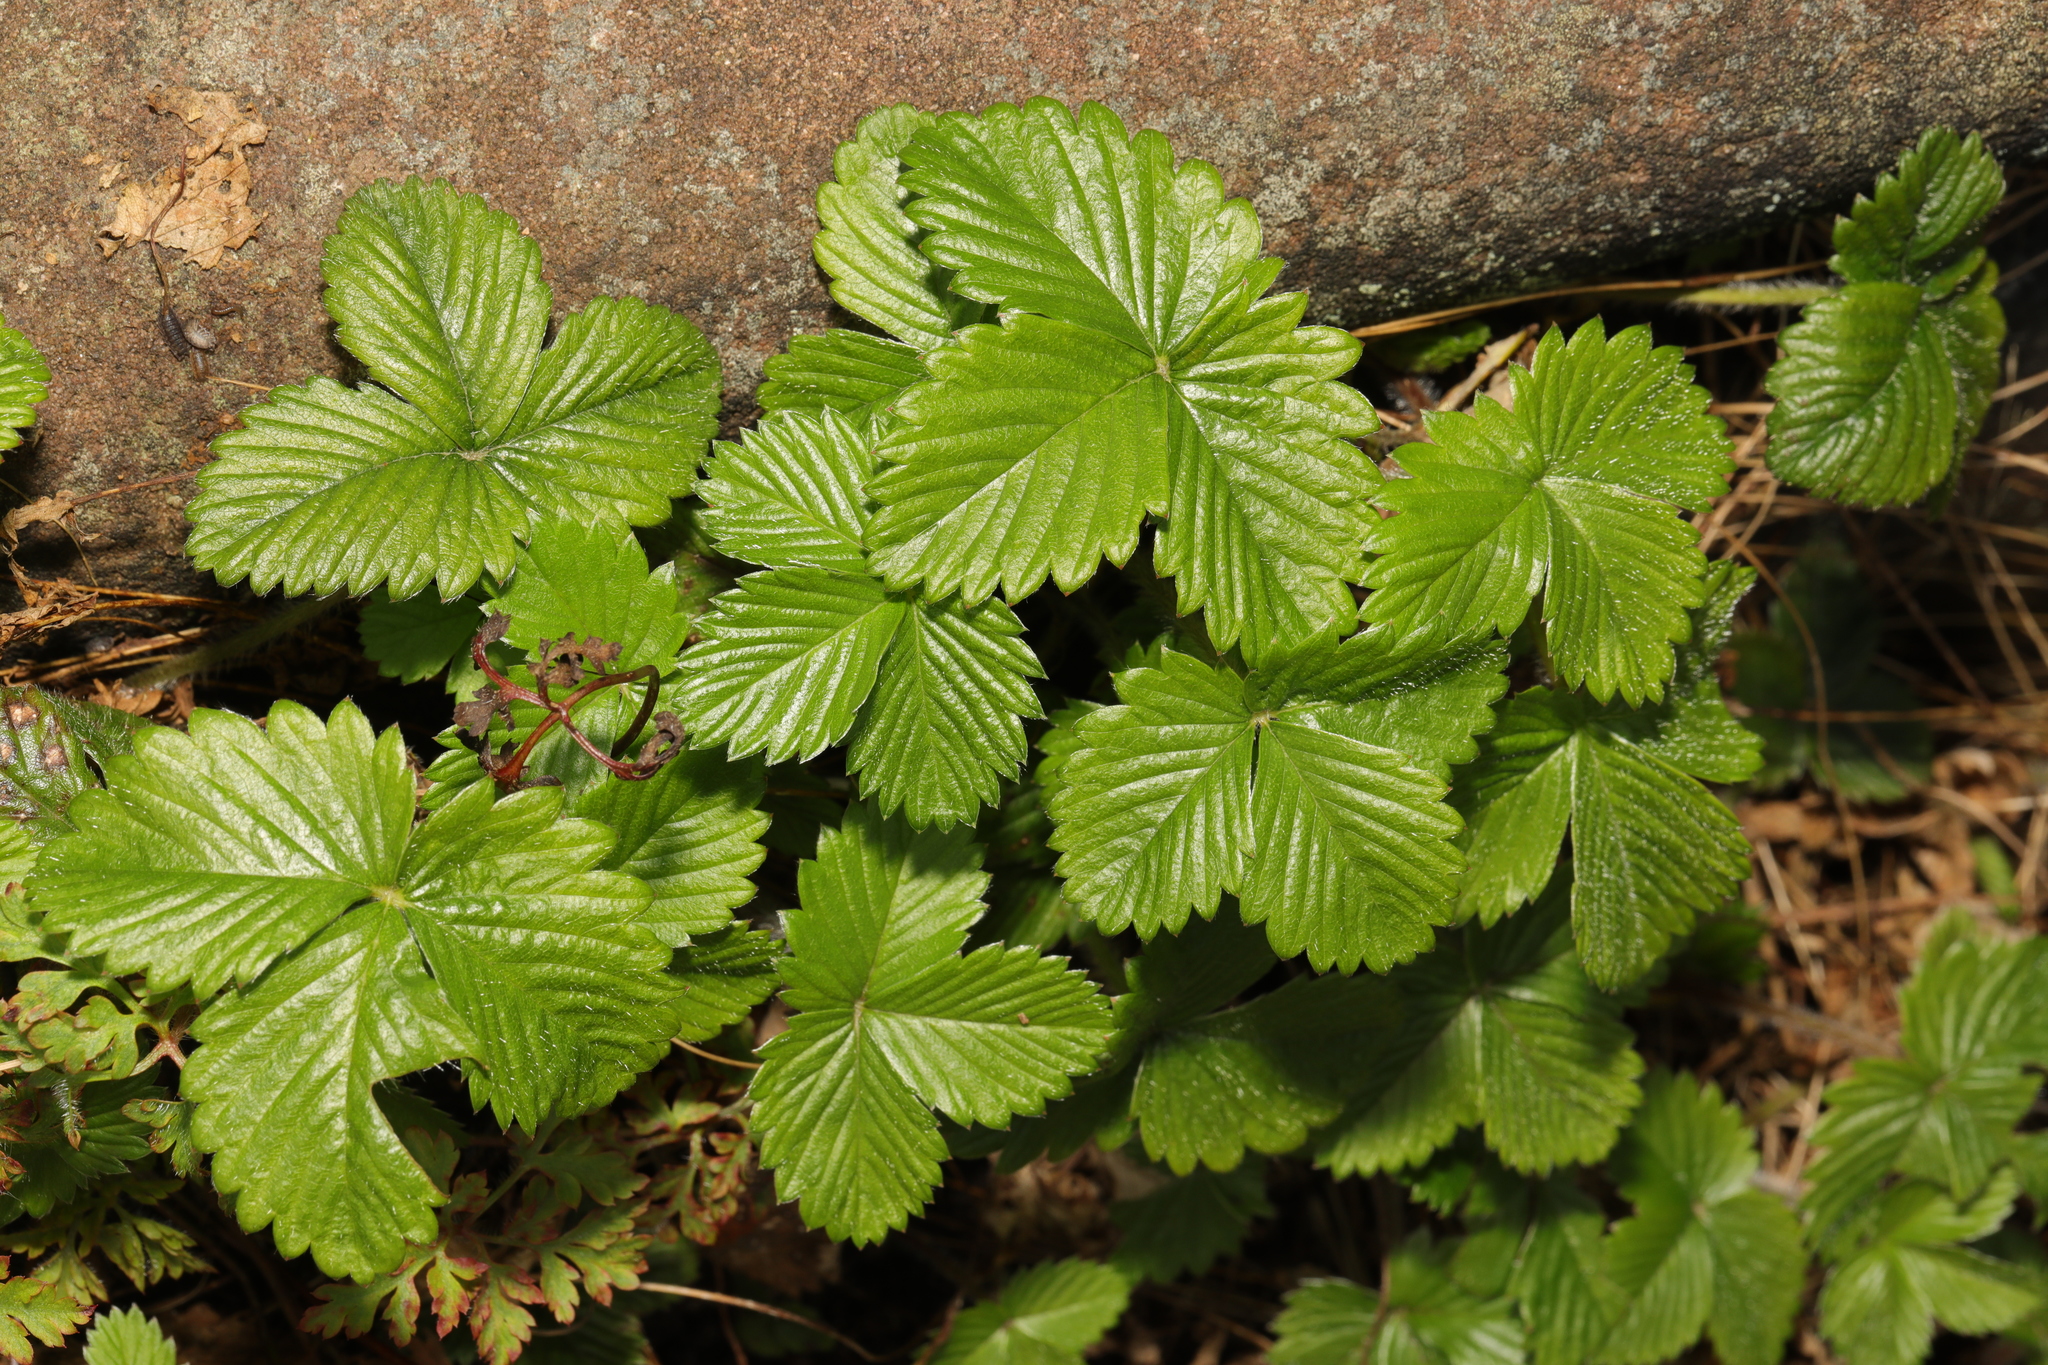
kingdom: Plantae
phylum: Tracheophyta
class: Magnoliopsida
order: Rosales
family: Rosaceae
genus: Fragaria
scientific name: Fragaria vesca
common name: Wild strawberry
